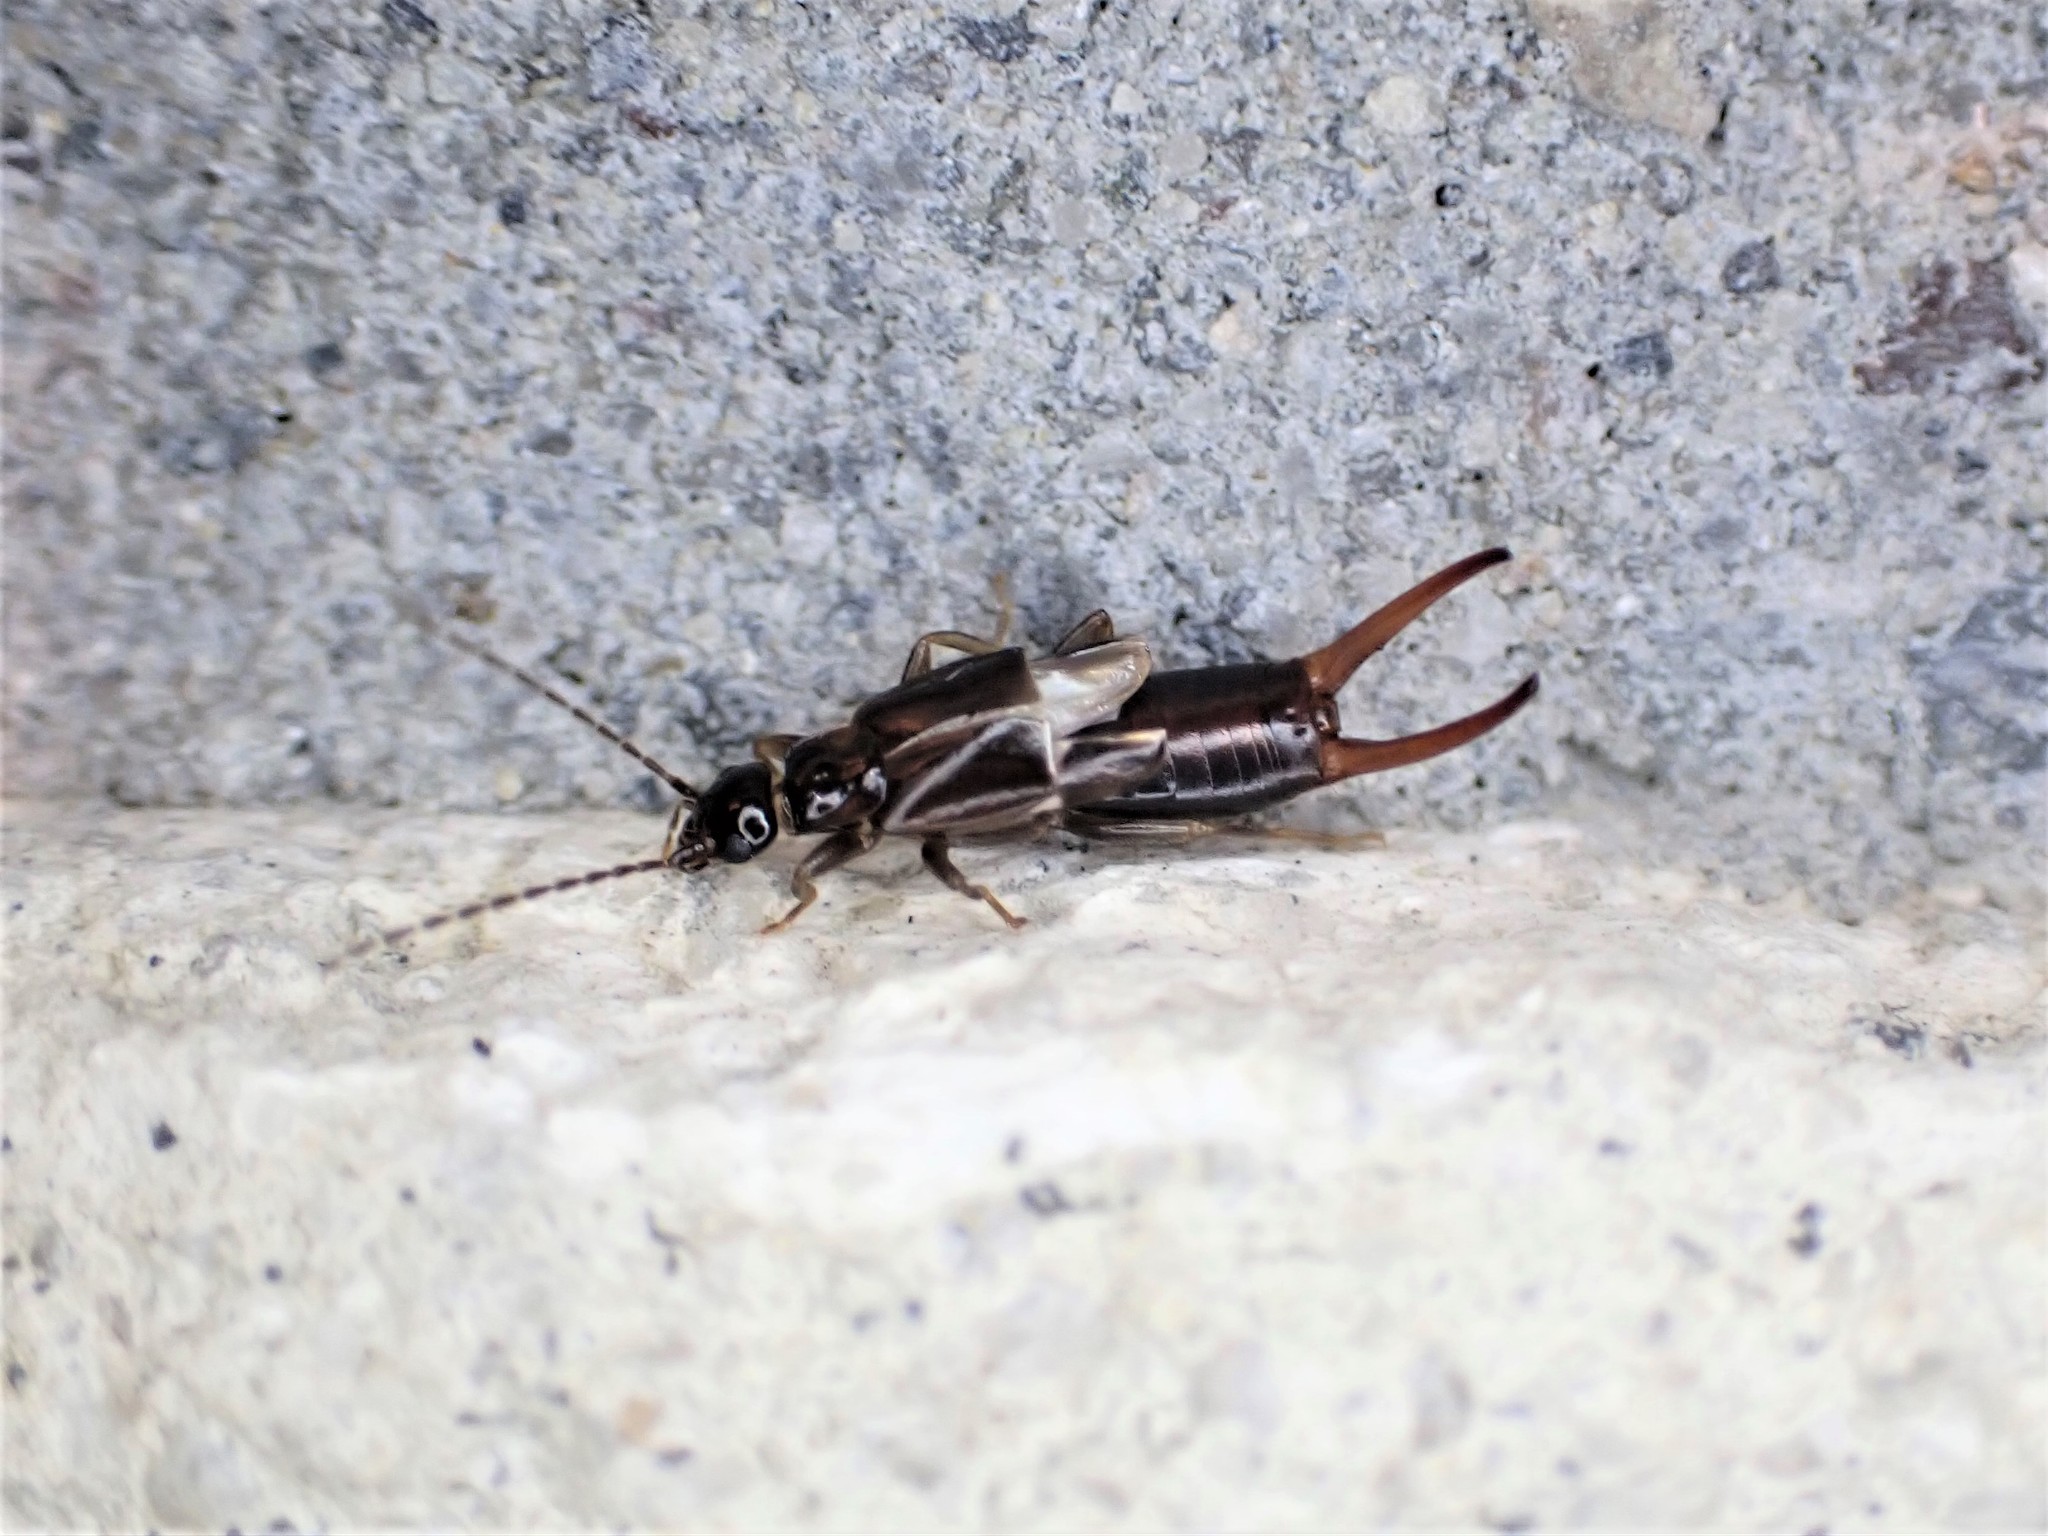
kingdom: Animalia
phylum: Arthropoda
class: Insecta
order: Dermaptera
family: Spongiphoridae
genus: Nesogaster
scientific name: Nesogaster halli
